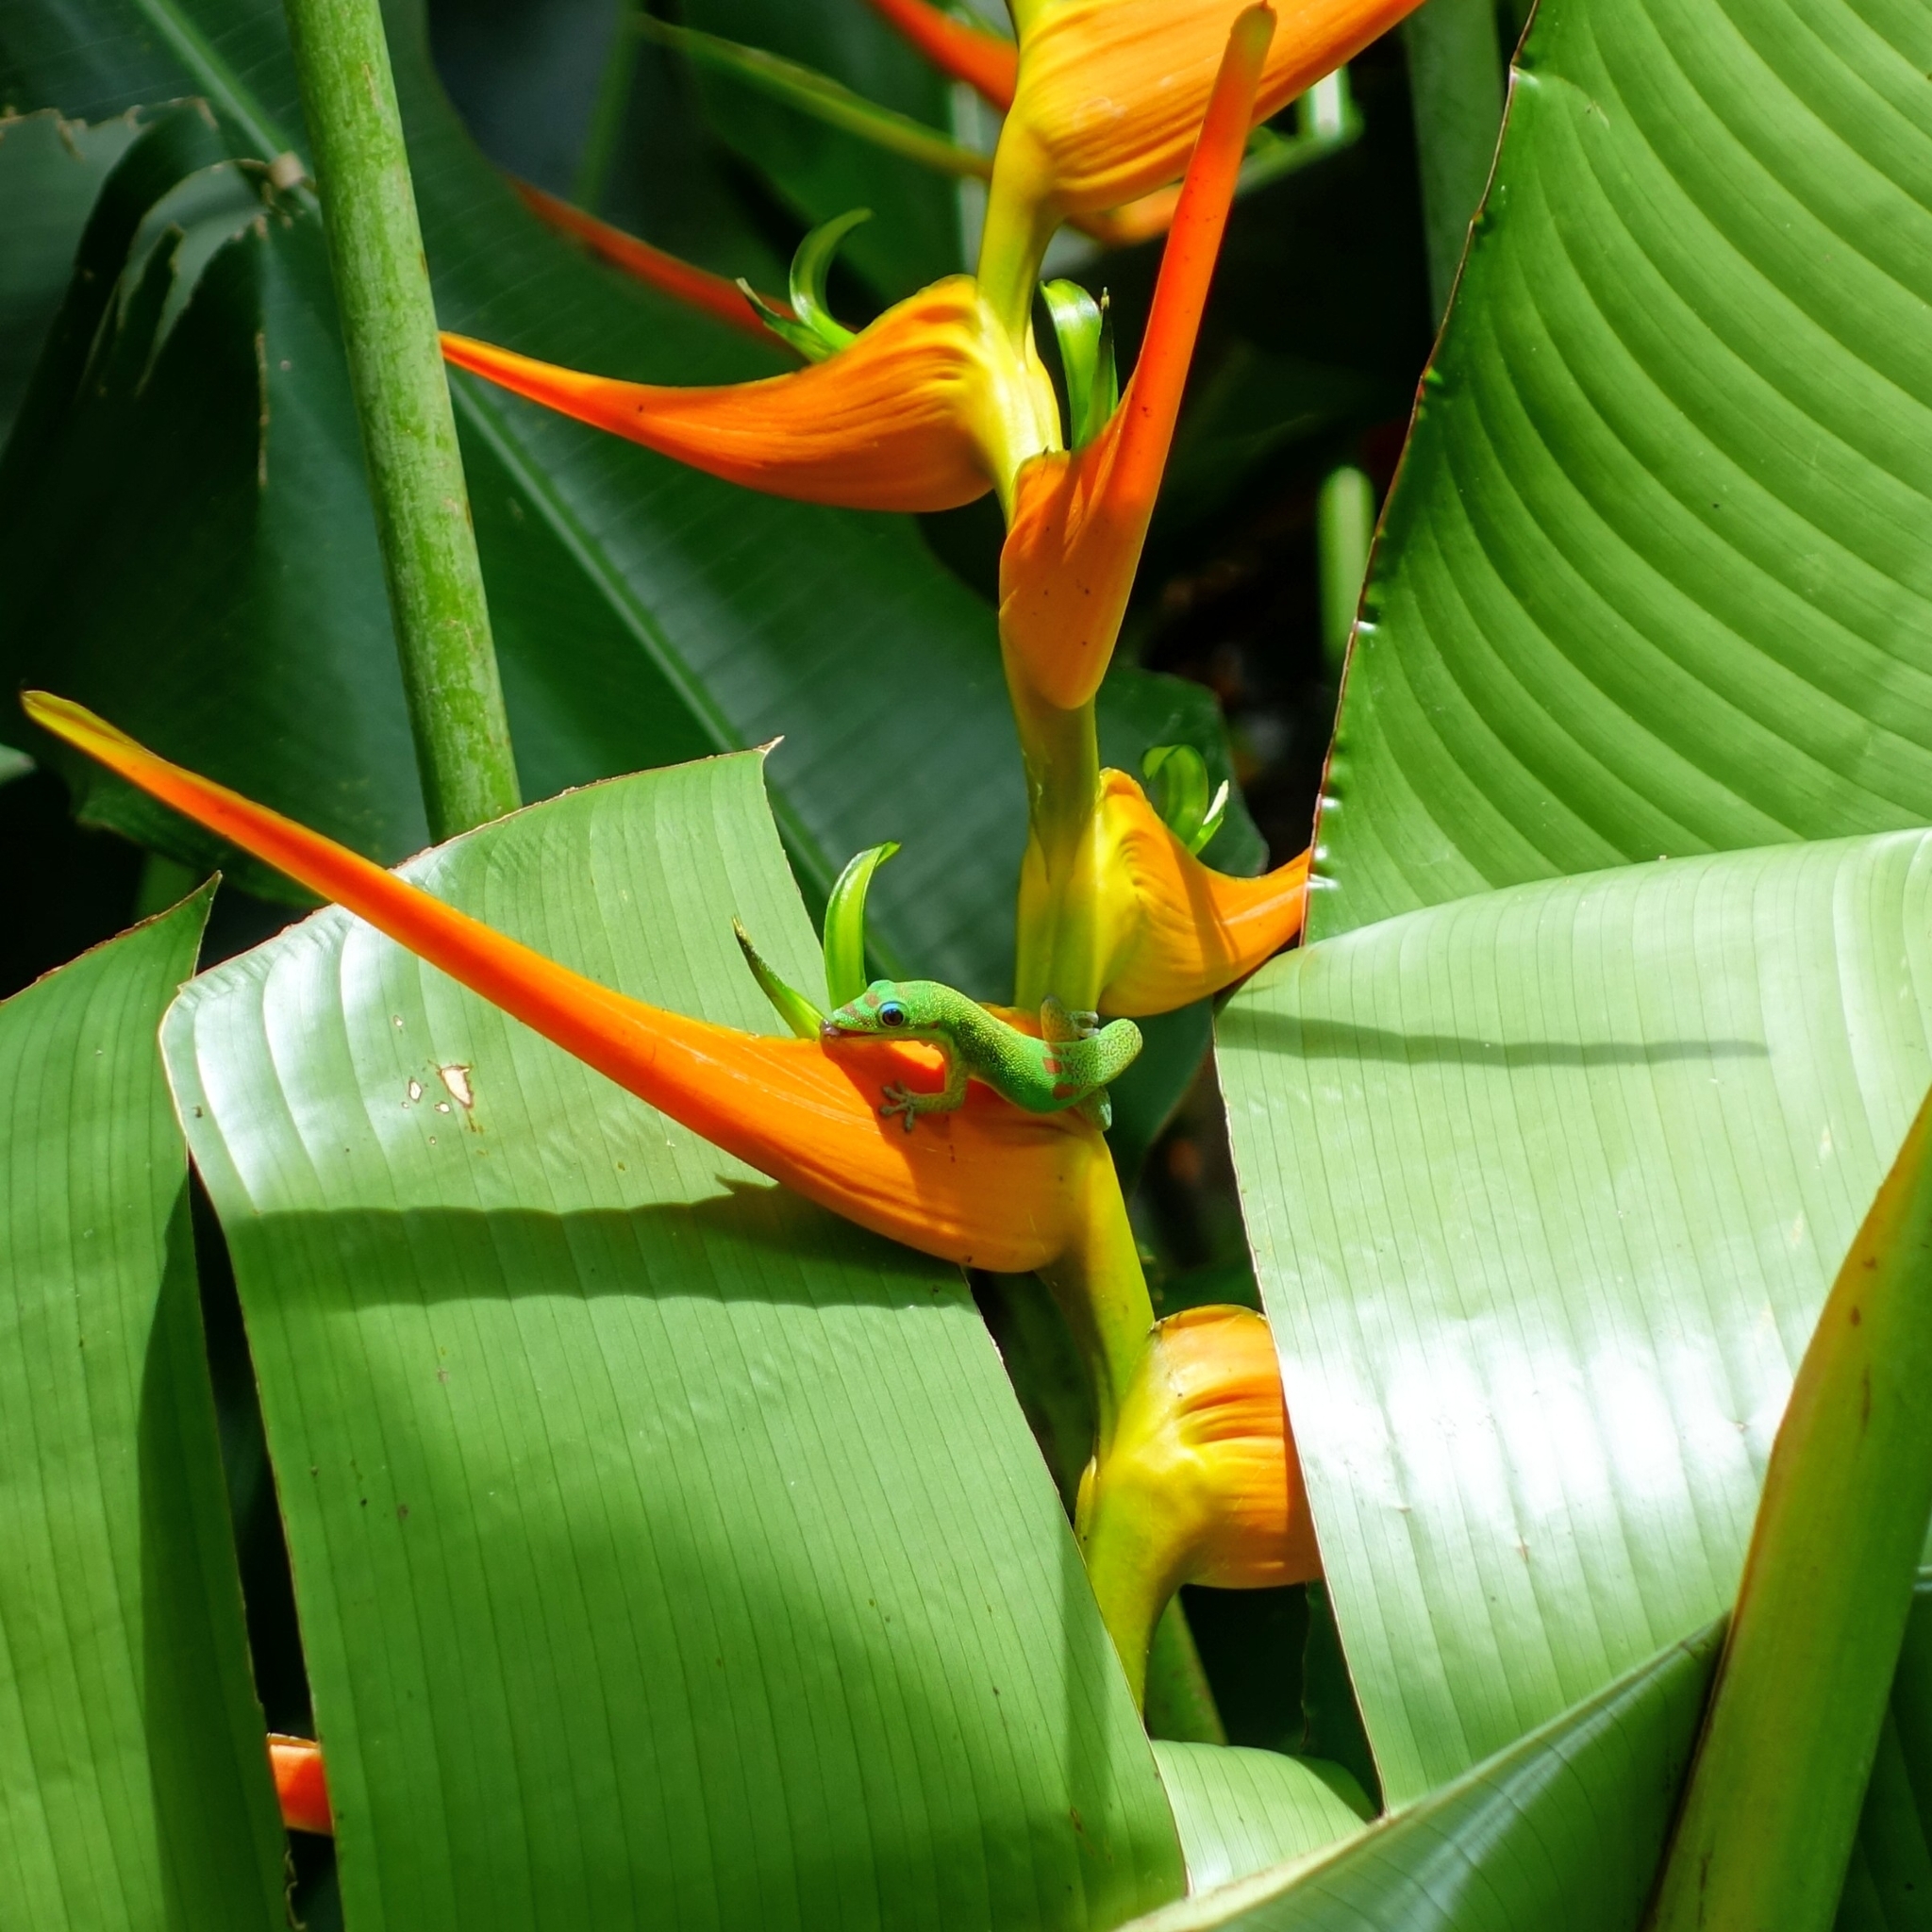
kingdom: Animalia
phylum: Chordata
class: Squamata
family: Gekkonidae
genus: Phelsuma
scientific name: Phelsuma laticauda
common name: Gold dust day gecko
